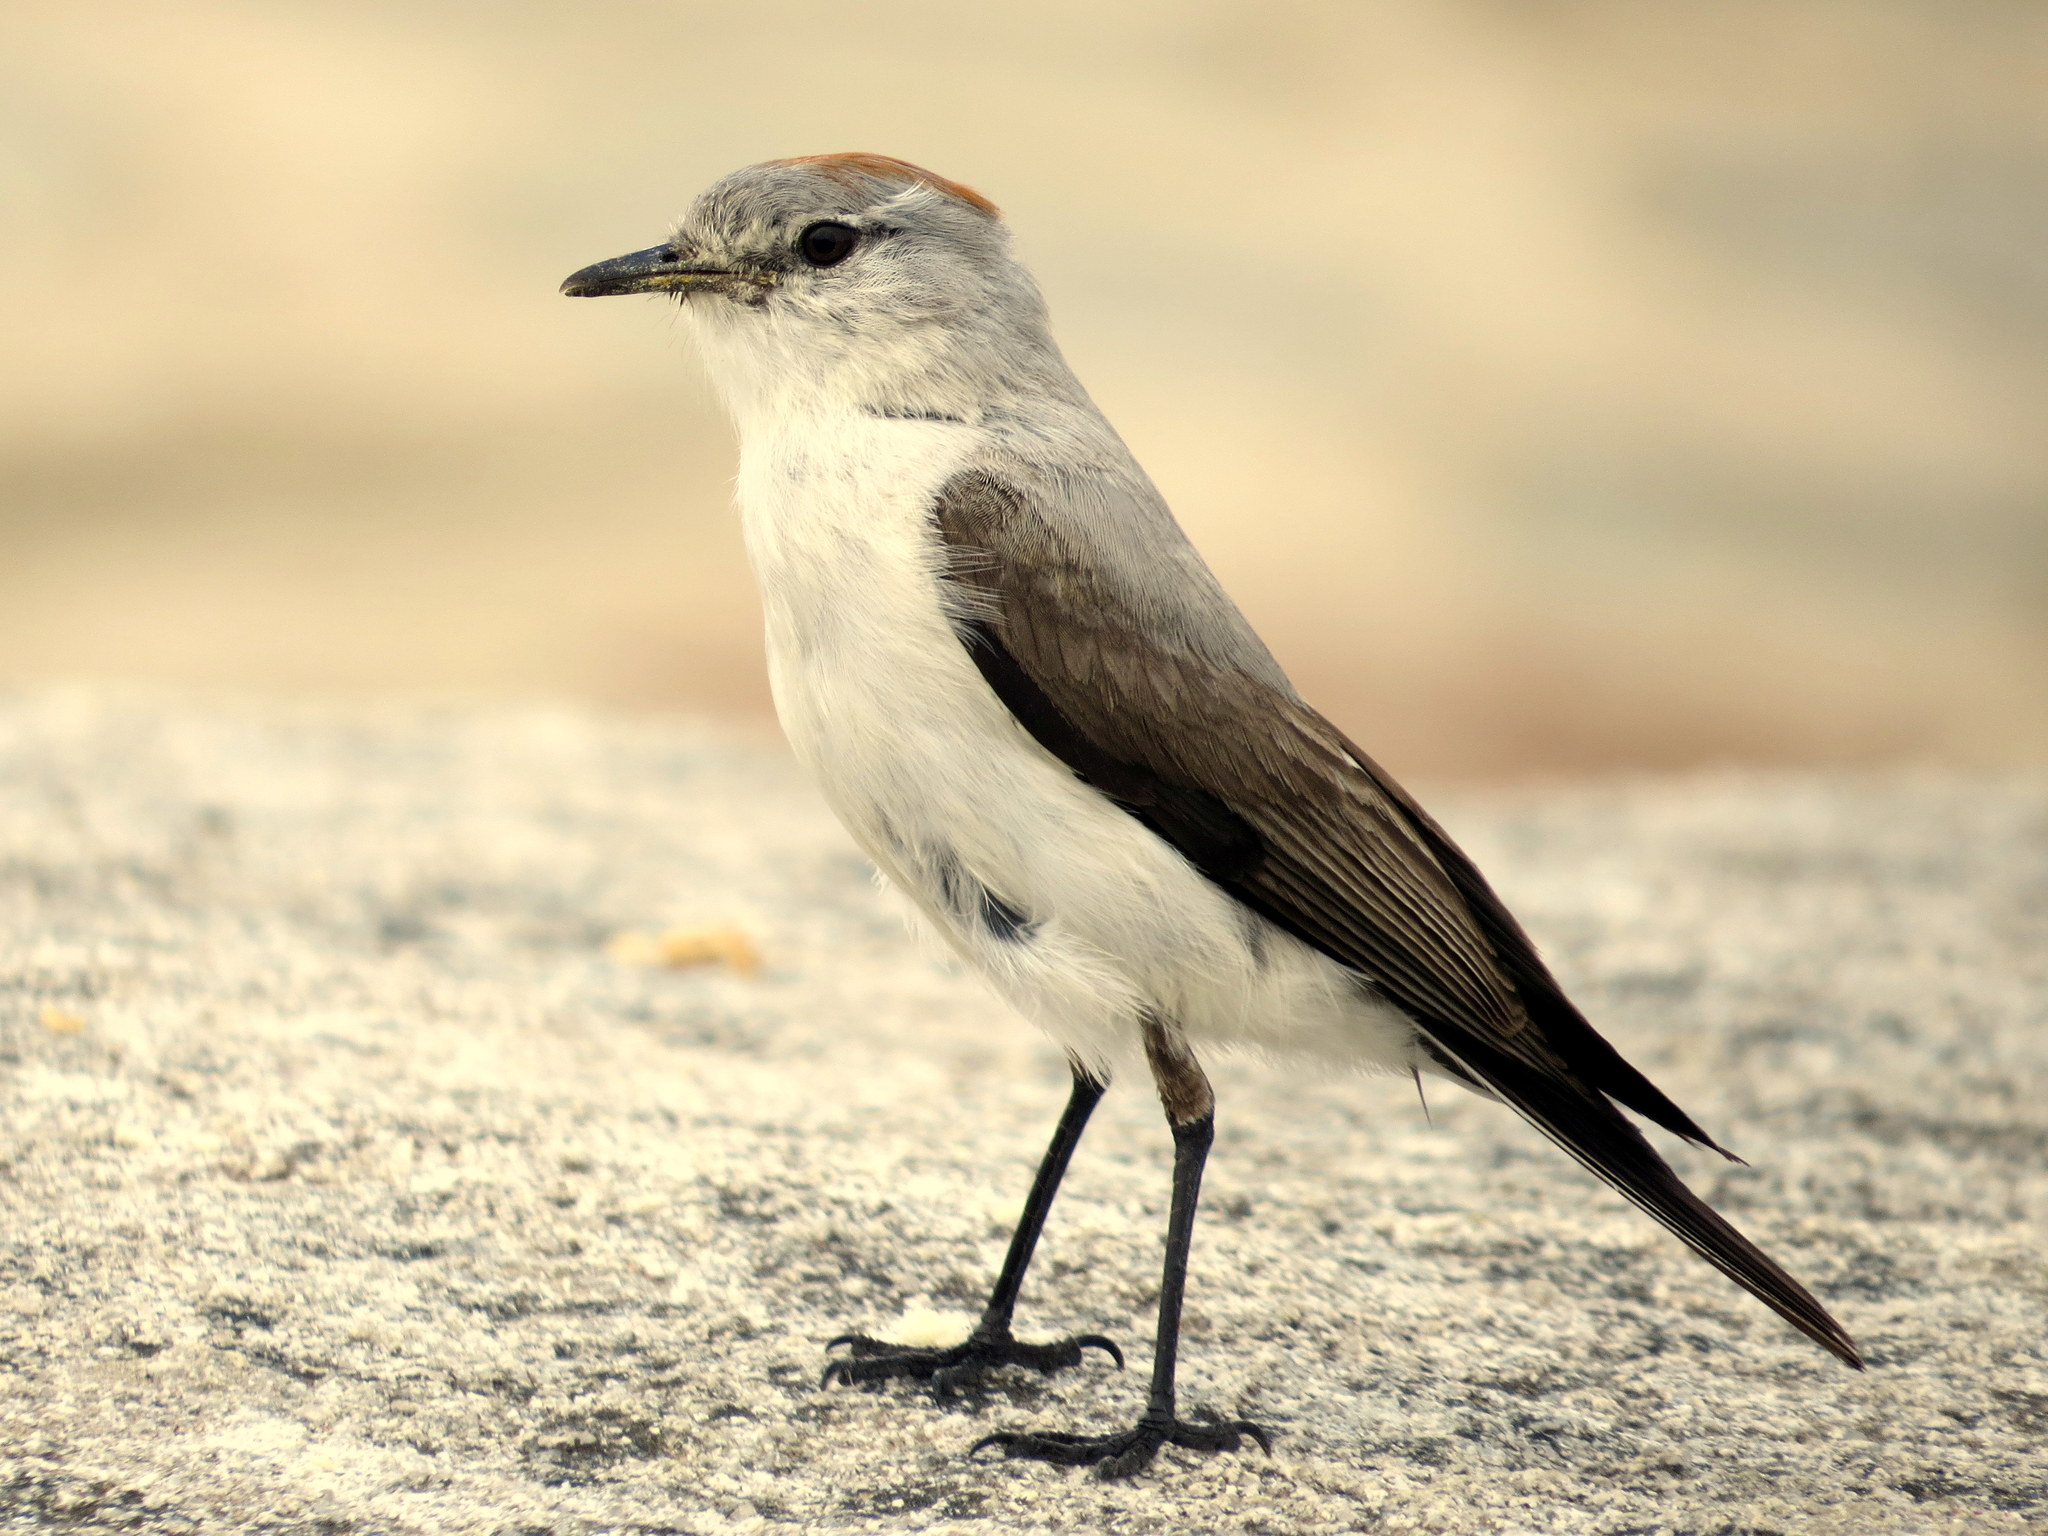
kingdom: Animalia
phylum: Chordata
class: Aves
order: Passeriformes
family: Tyrannidae
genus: Muscisaxicola
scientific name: Muscisaxicola rufivertex
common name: Rufous-naped ground tyrant
